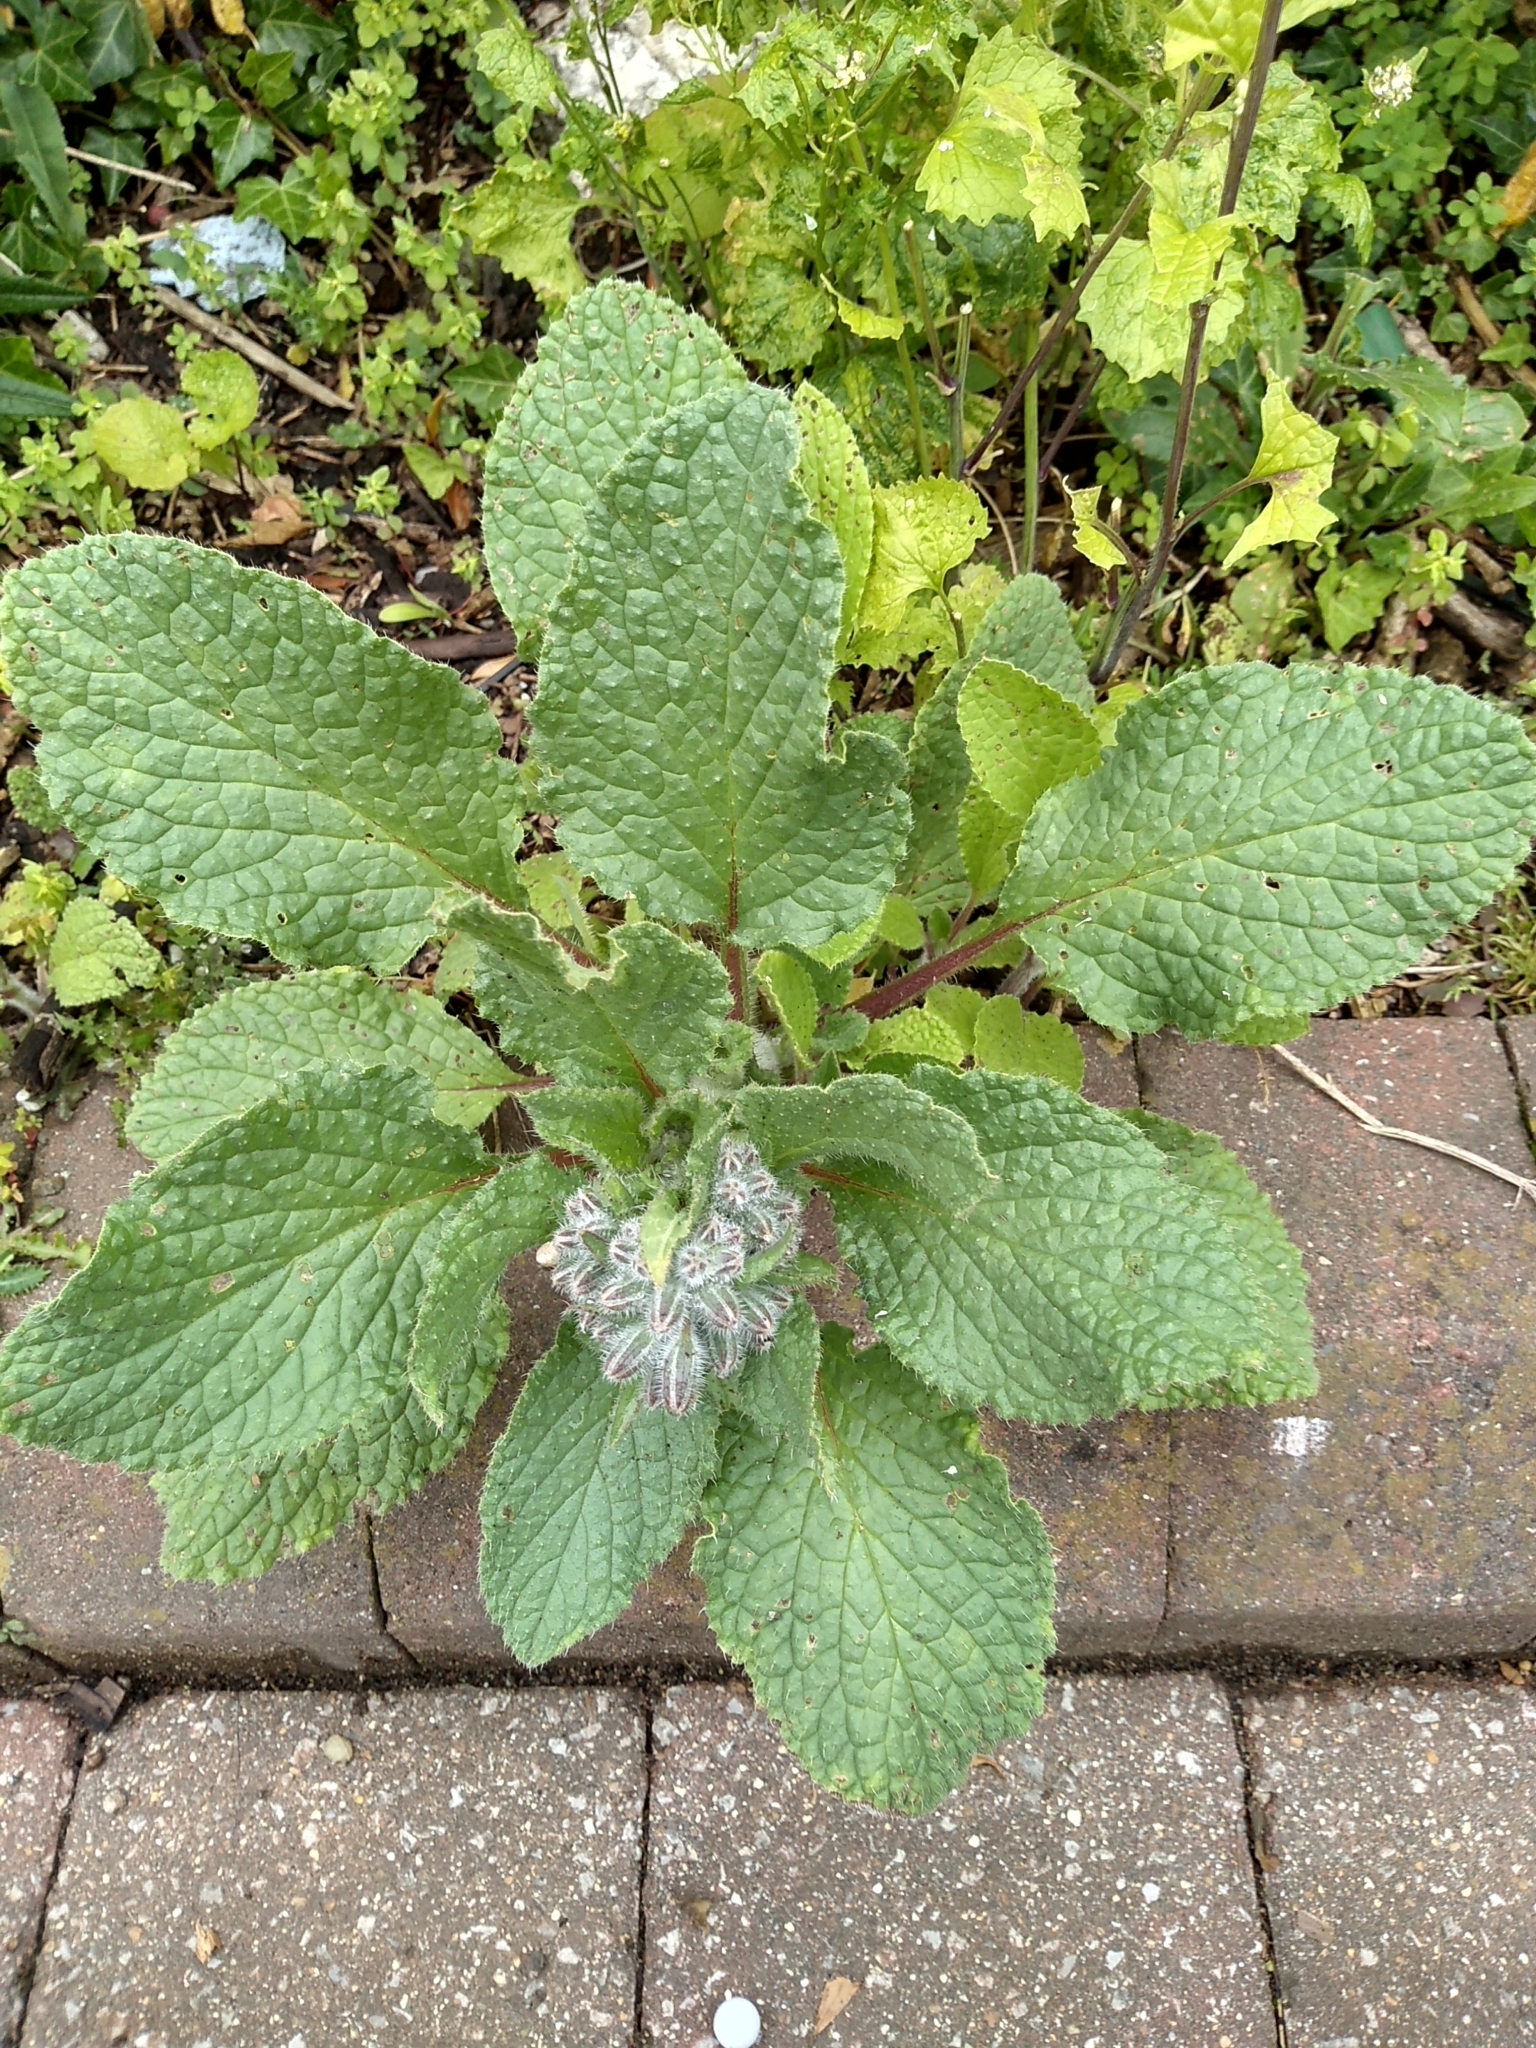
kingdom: Plantae
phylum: Tracheophyta
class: Magnoliopsida
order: Boraginales
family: Boraginaceae
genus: Borago
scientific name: Borago officinalis
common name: Borage
